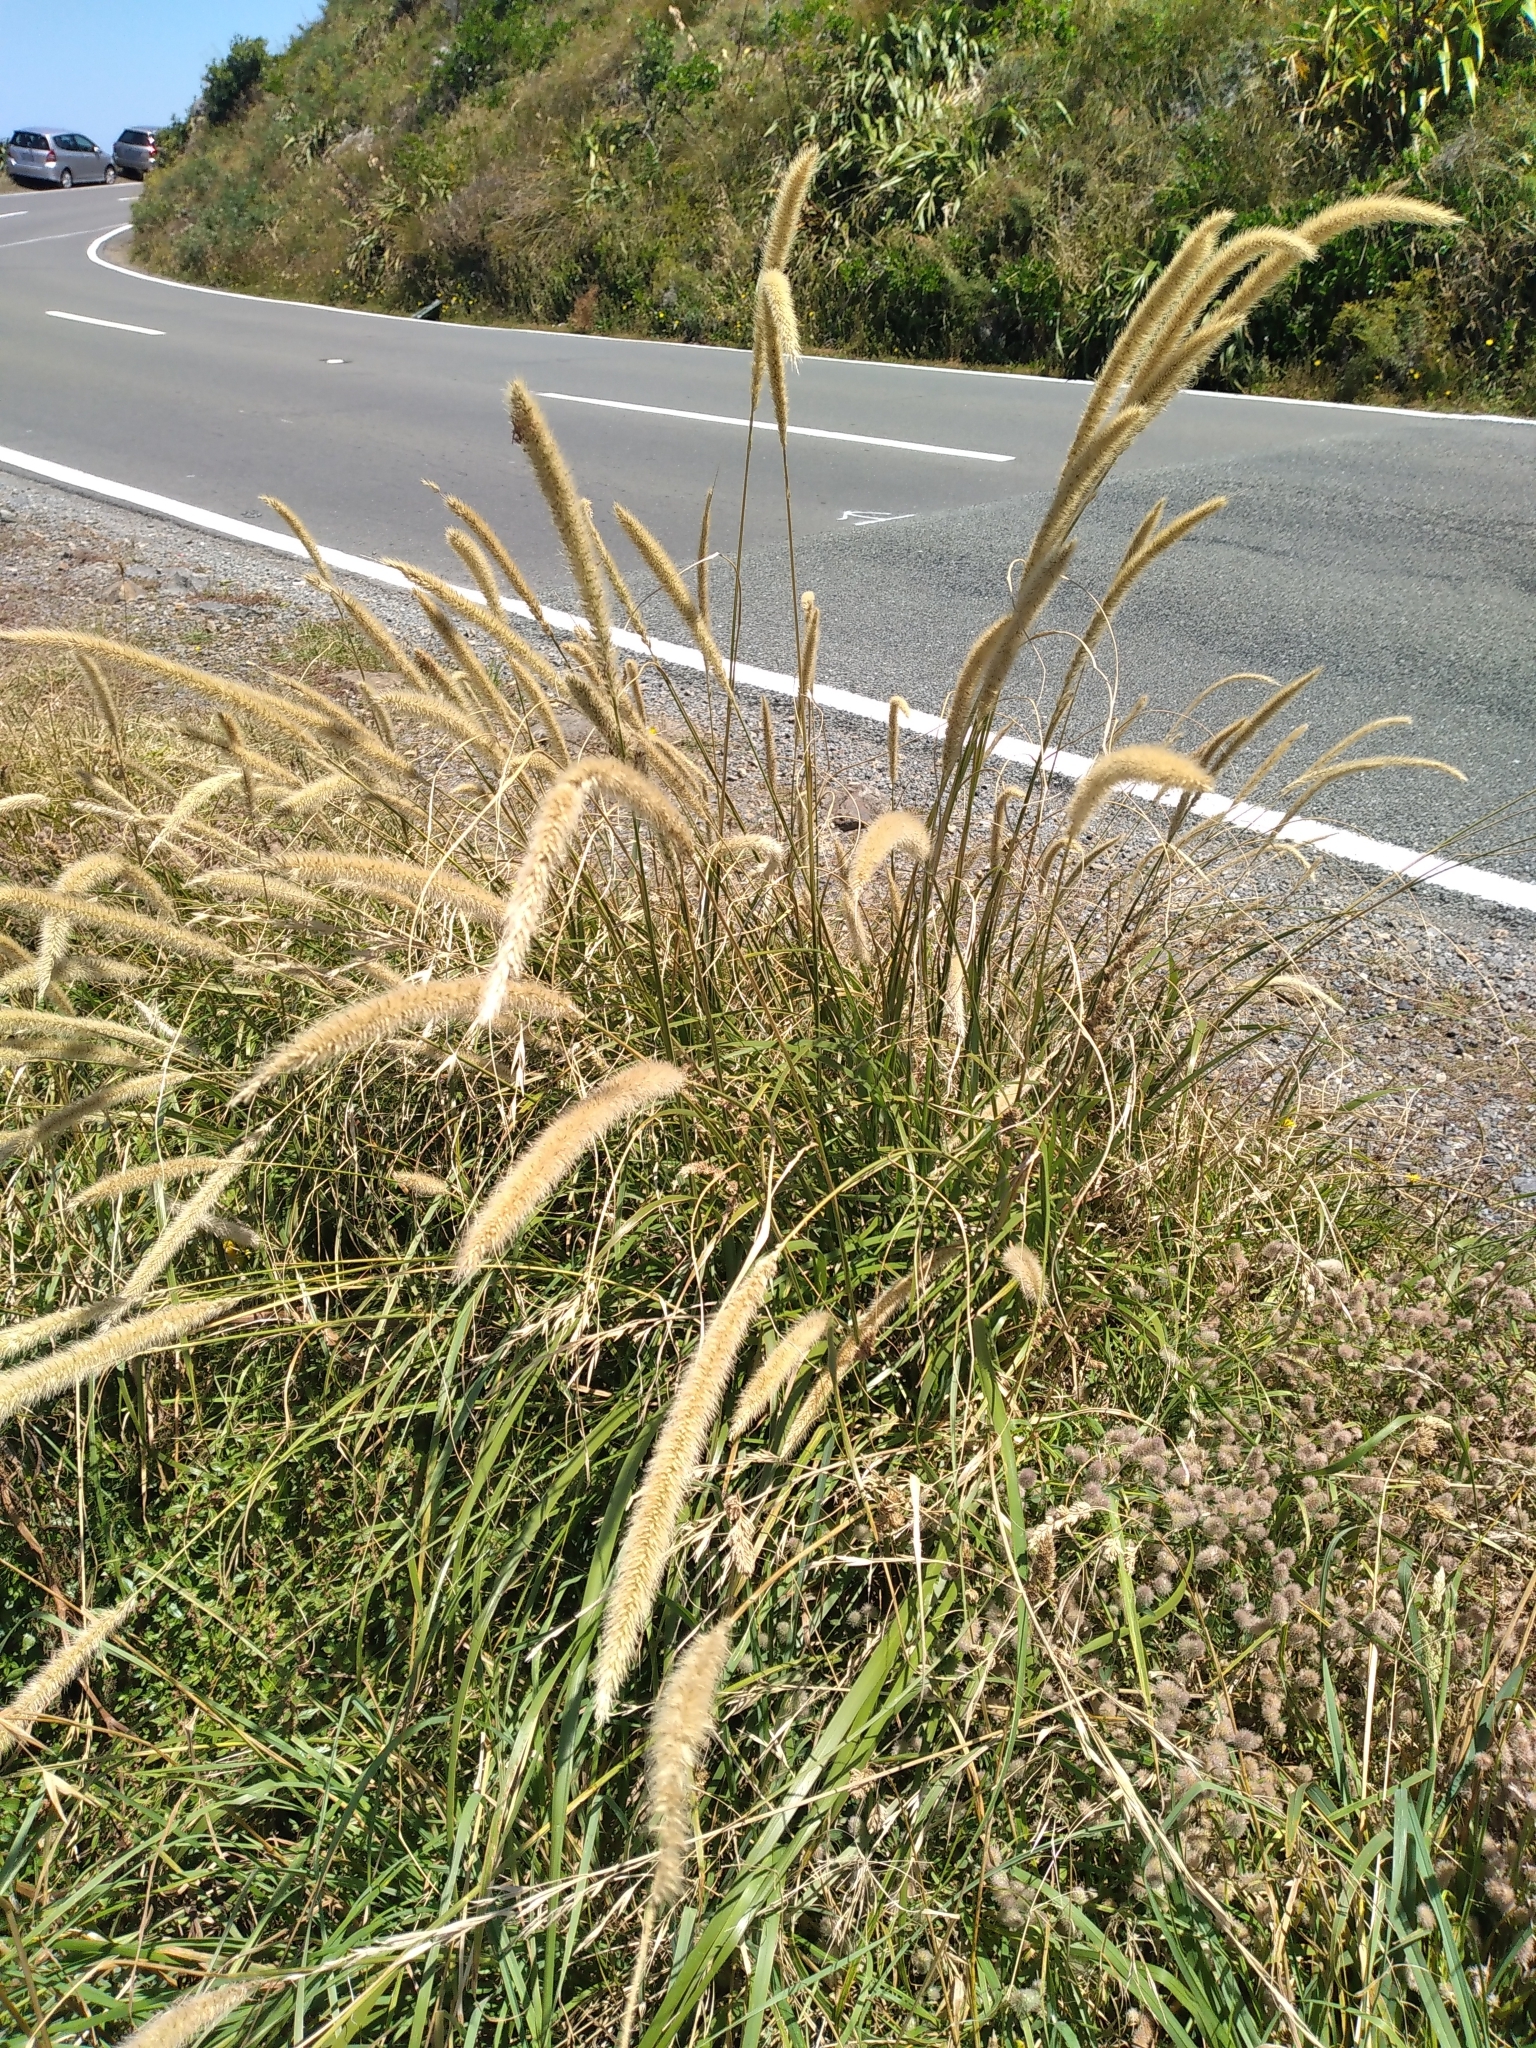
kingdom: Plantae
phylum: Tracheophyta
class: Liliopsida
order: Poales
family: Poaceae
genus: Cenchrus
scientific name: Cenchrus caudatus
